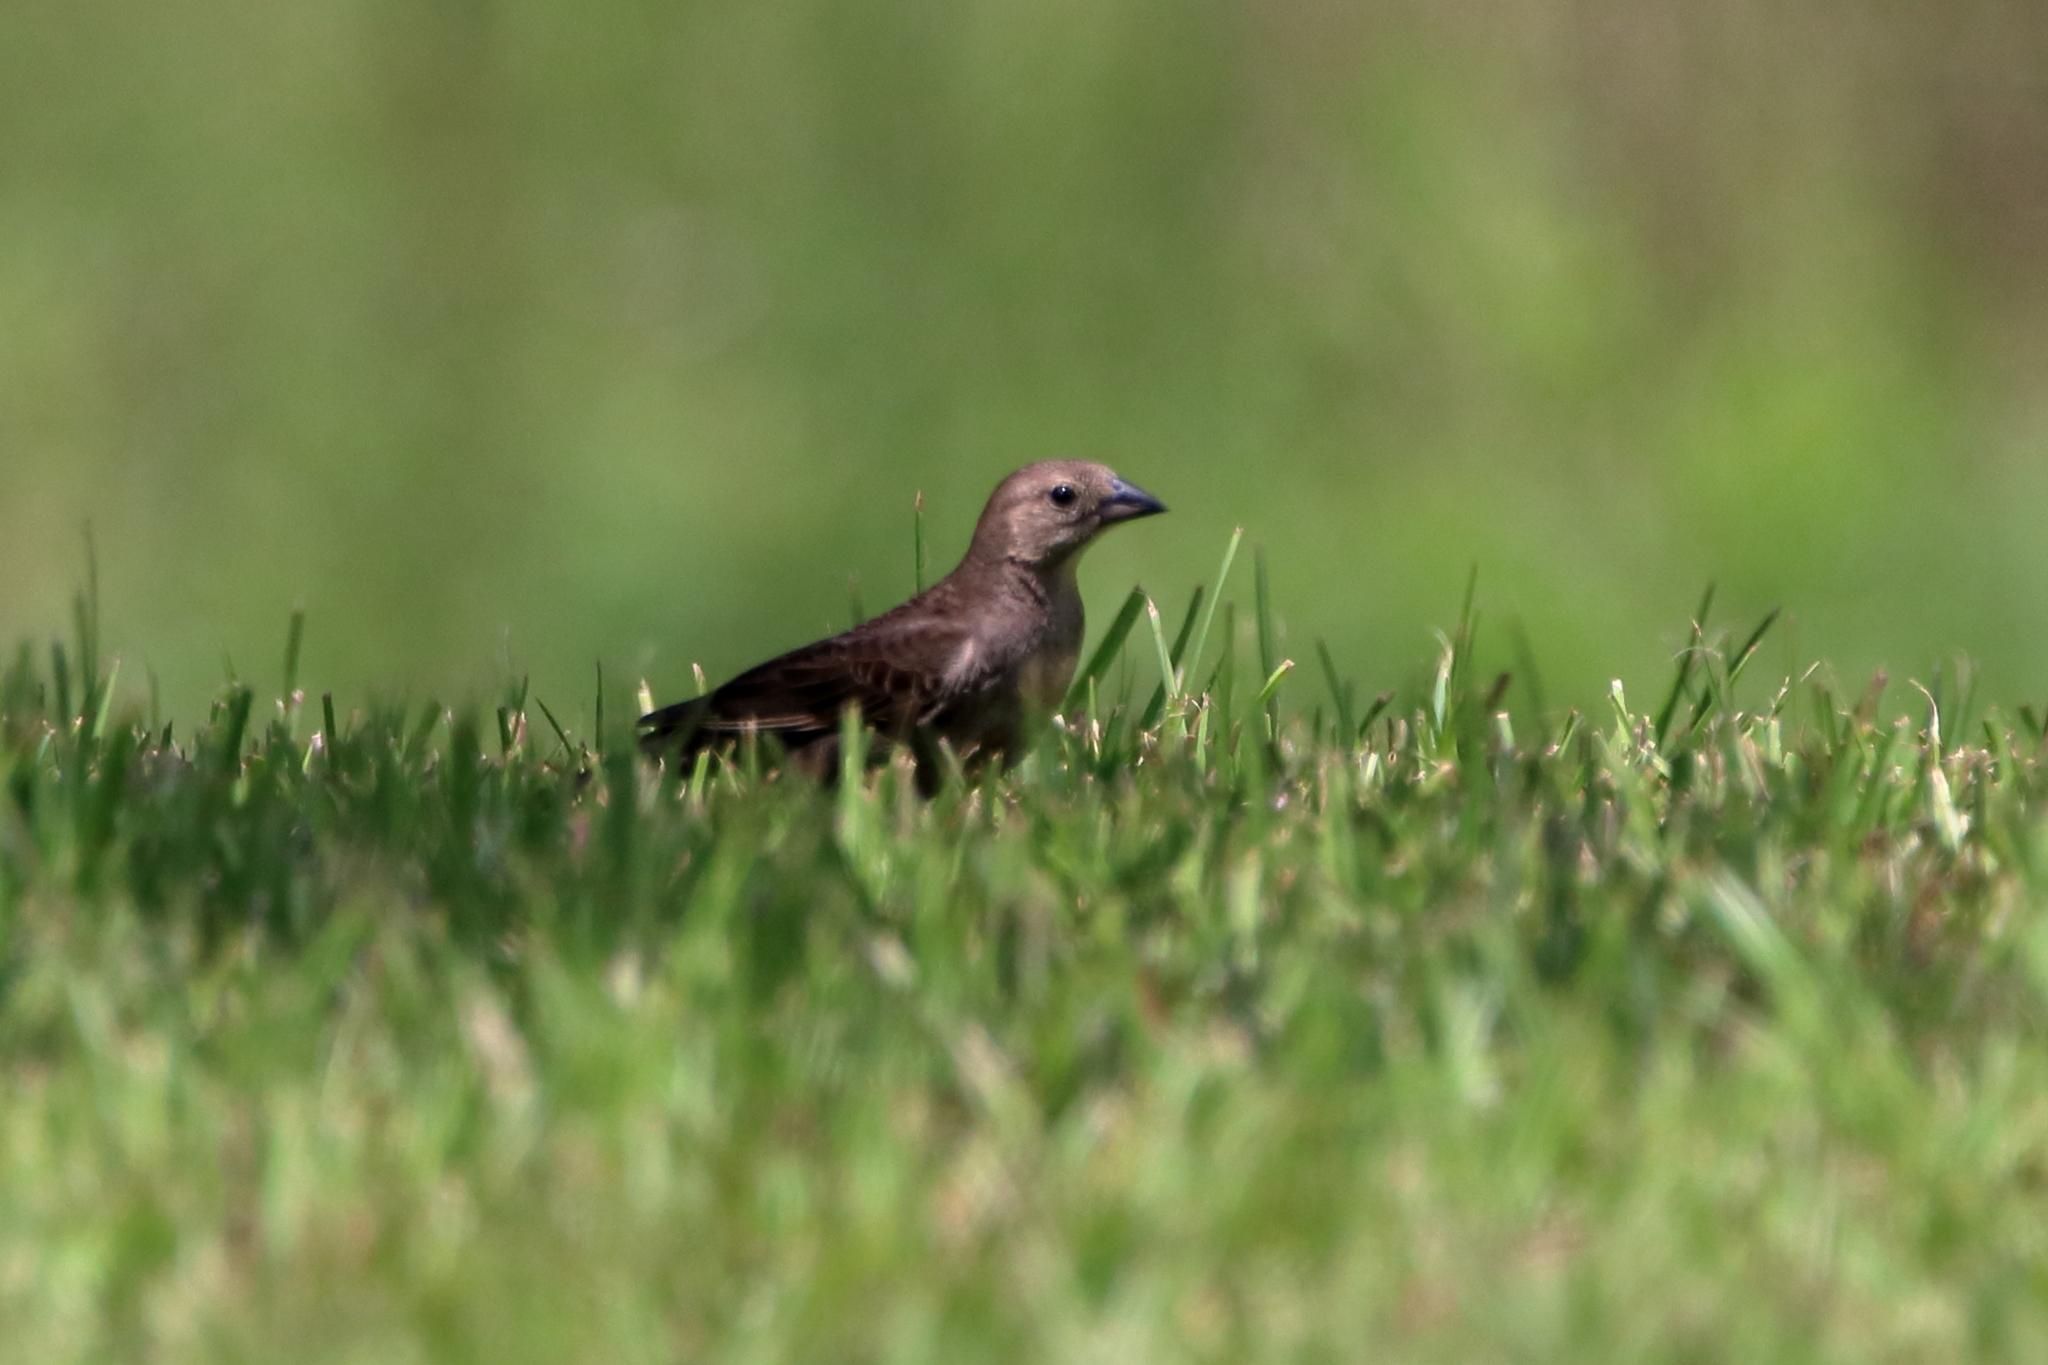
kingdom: Animalia
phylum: Chordata
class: Aves
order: Passeriformes
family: Icteridae
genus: Molothrus
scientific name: Molothrus ater
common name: Brown-headed cowbird
